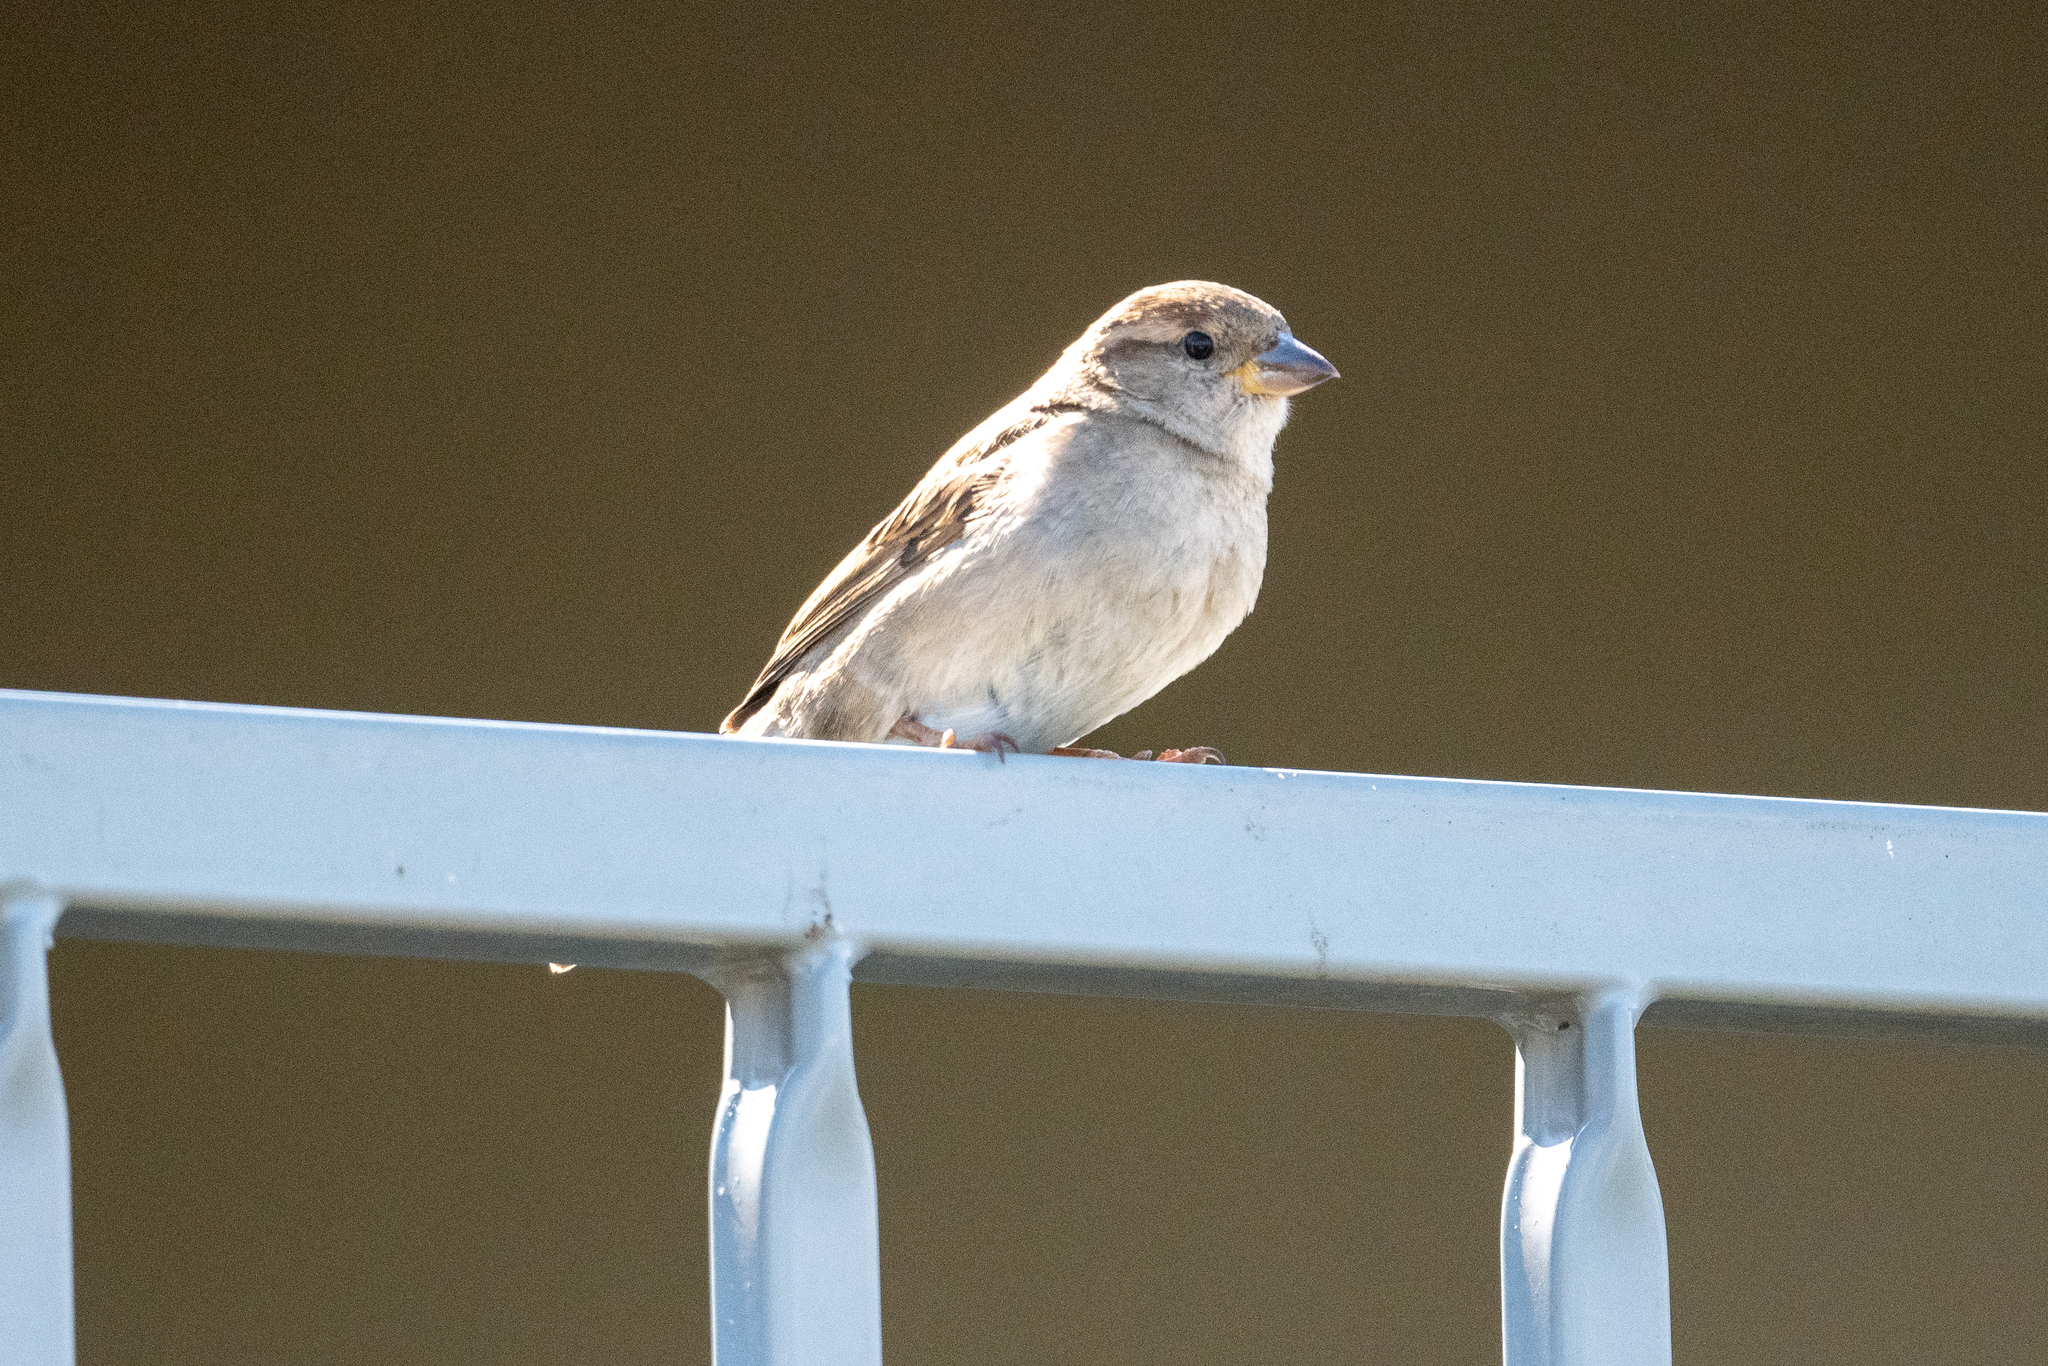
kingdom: Animalia
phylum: Chordata
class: Aves
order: Passeriformes
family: Passeridae
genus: Passer
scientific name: Passer domesticus
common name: House sparrow
